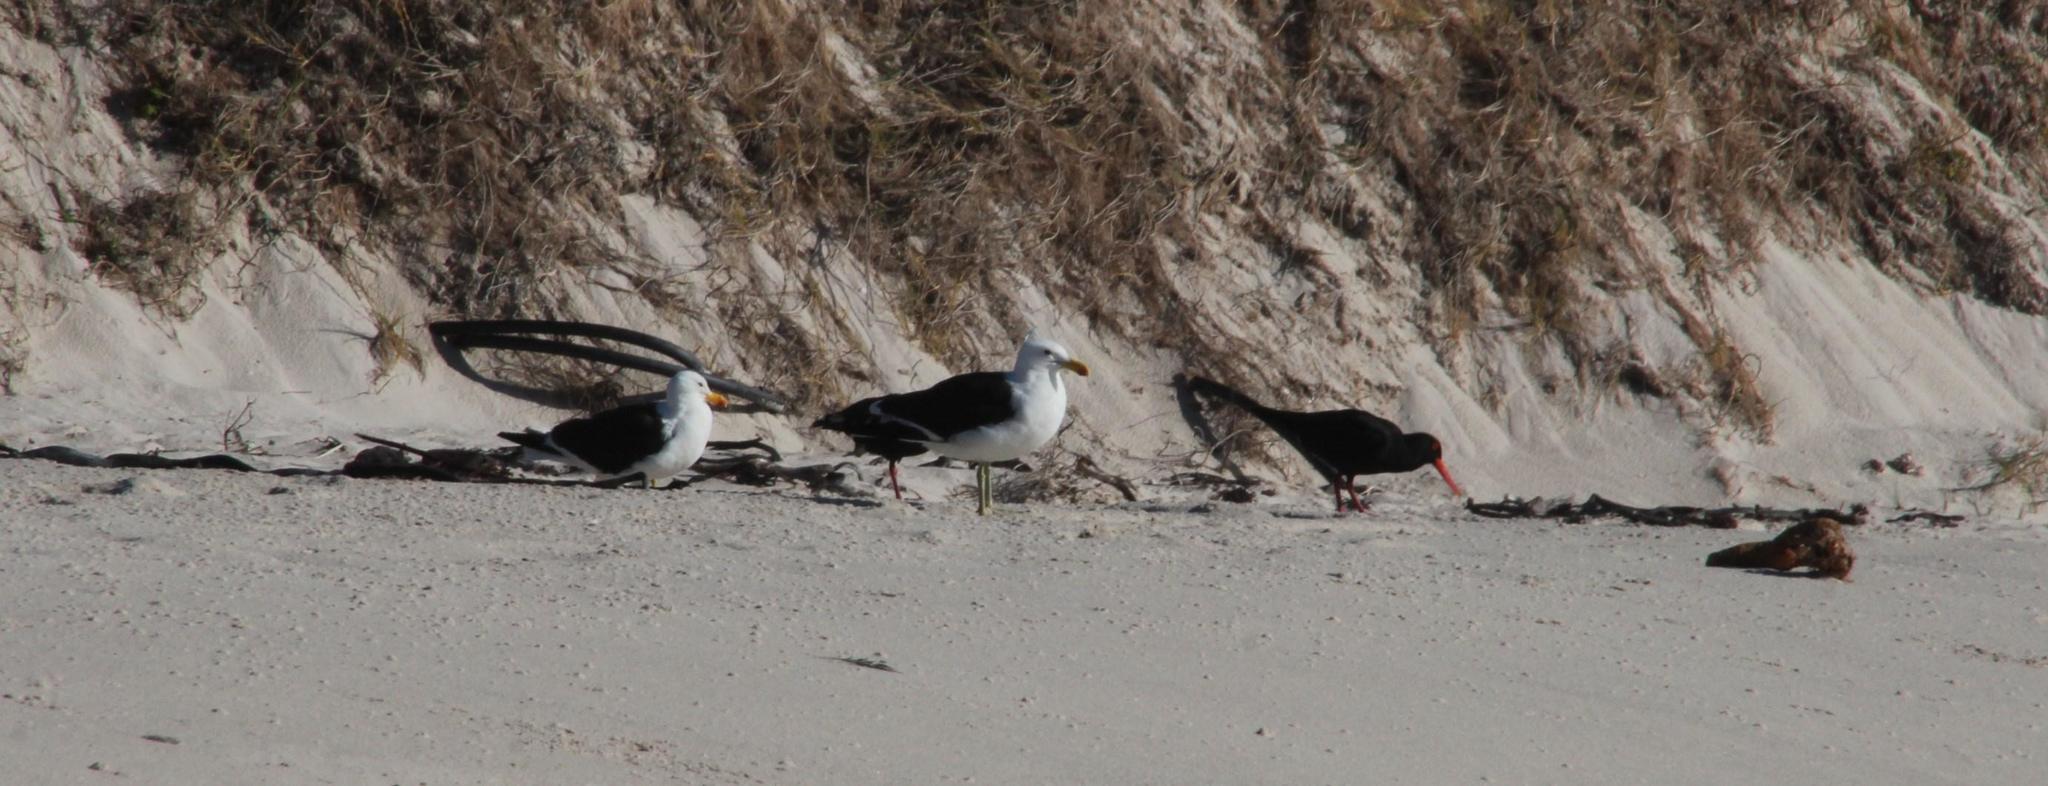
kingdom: Animalia
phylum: Chordata
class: Aves
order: Charadriiformes
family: Haematopodidae
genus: Haematopus
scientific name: Haematopus moquini
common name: African oystercatcher
